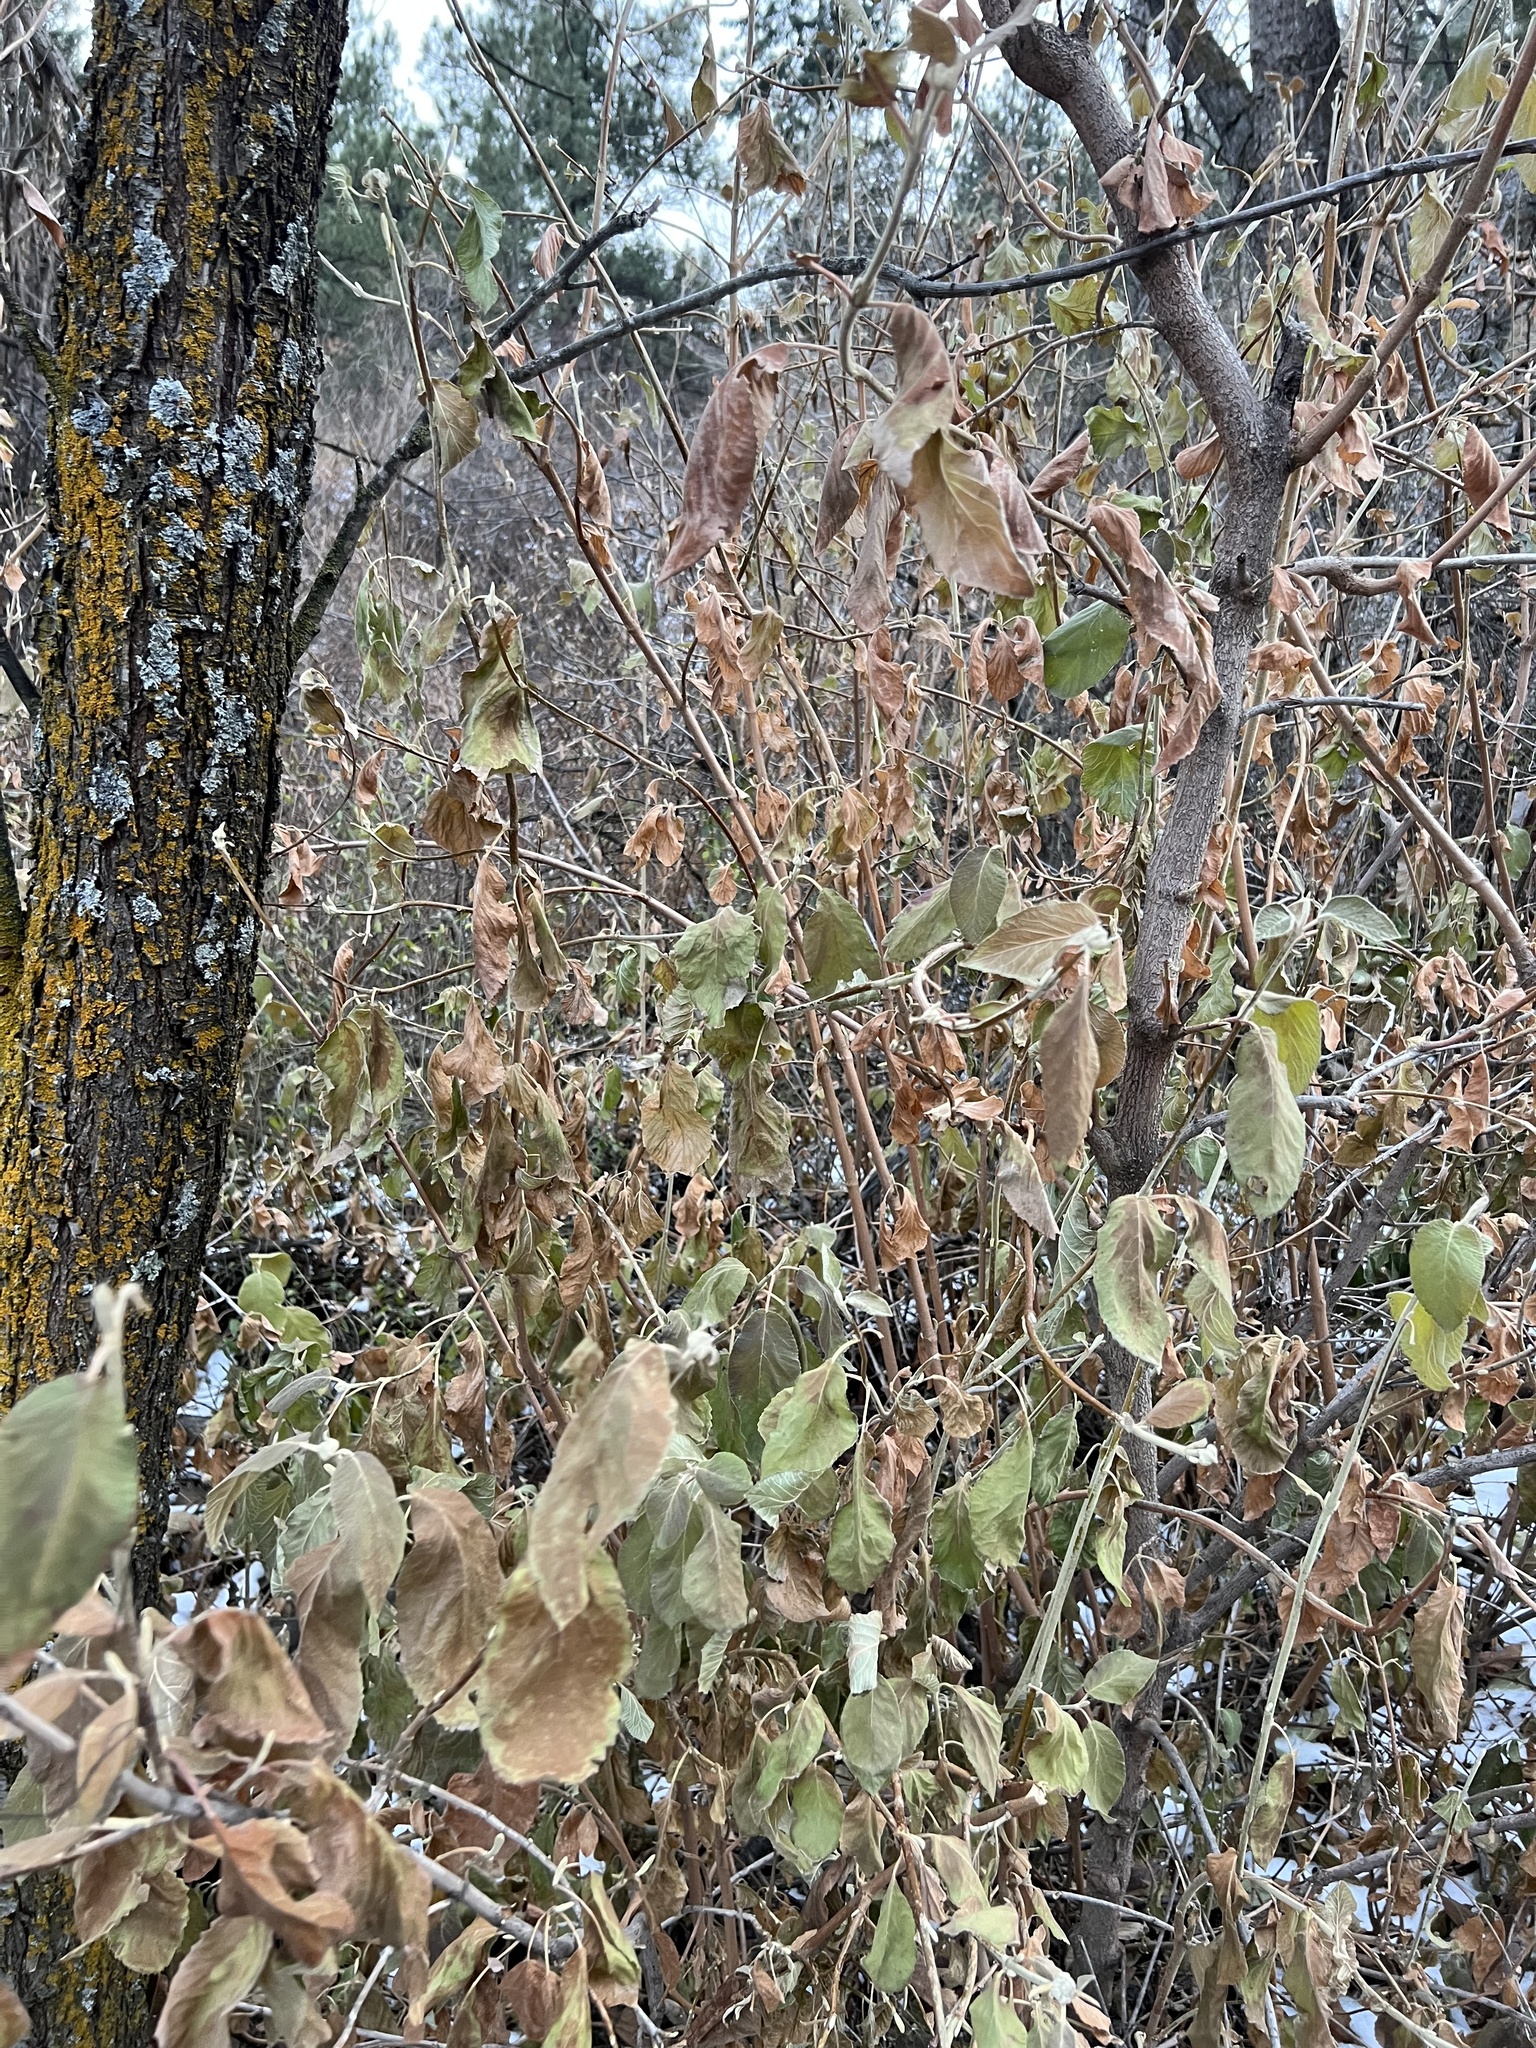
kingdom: Plantae
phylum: Tracheophyta
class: Magnoliopsida
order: Dipsacales
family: Viburnaceae
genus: Viburnum
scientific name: Viburnum lantana
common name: Wayfaring tree
